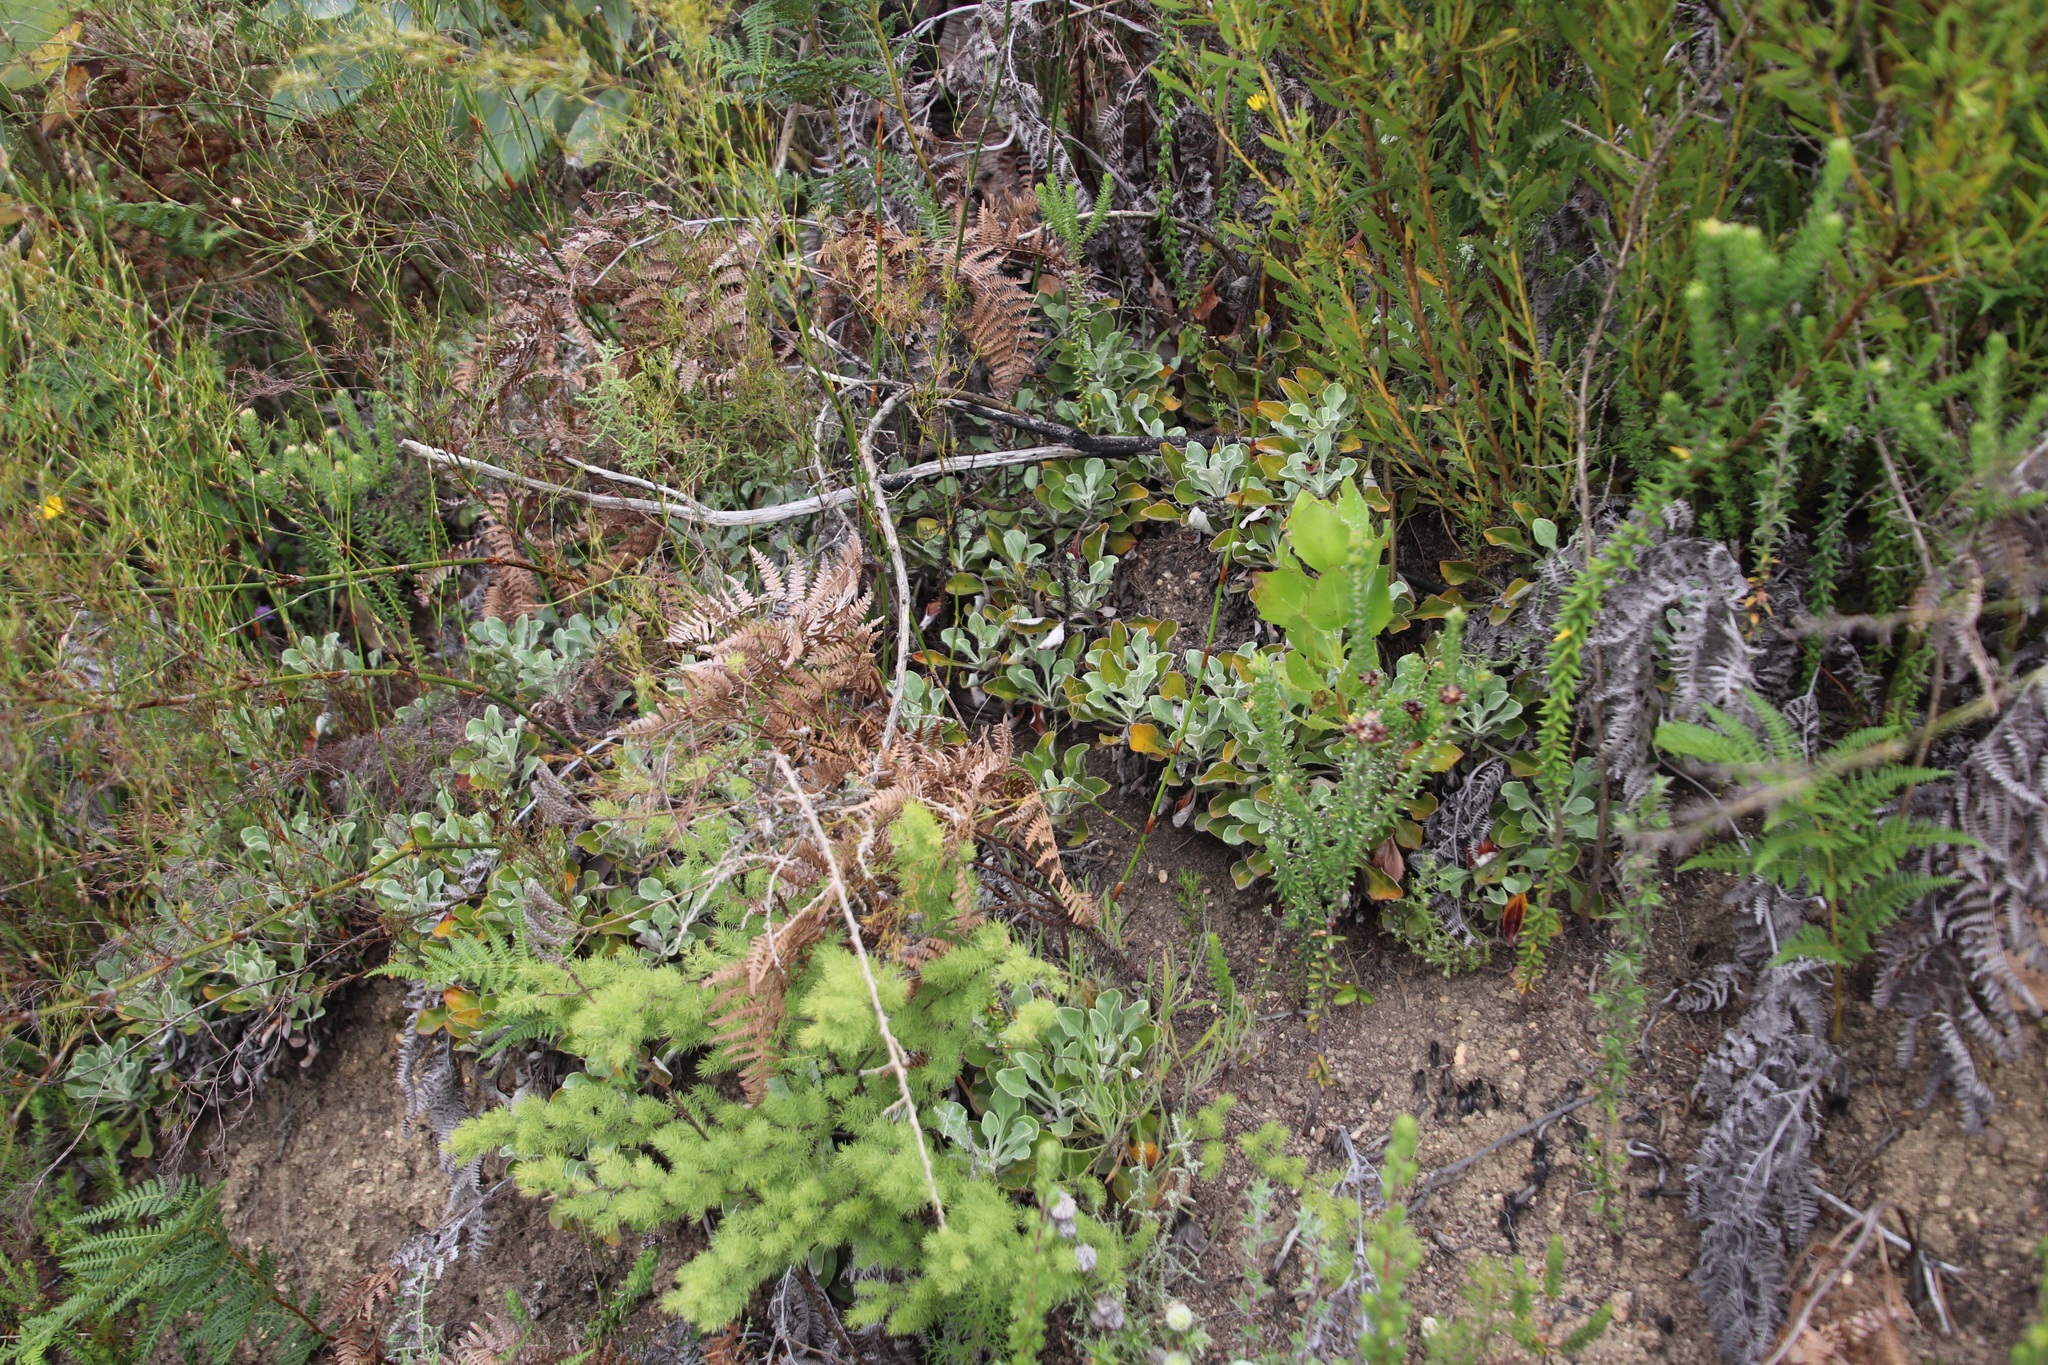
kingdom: Plantae
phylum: Tracheophyta
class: Liliopsida
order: Asparagales
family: Asparagaceae
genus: Asparagus
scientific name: Asparagus rubicundus
